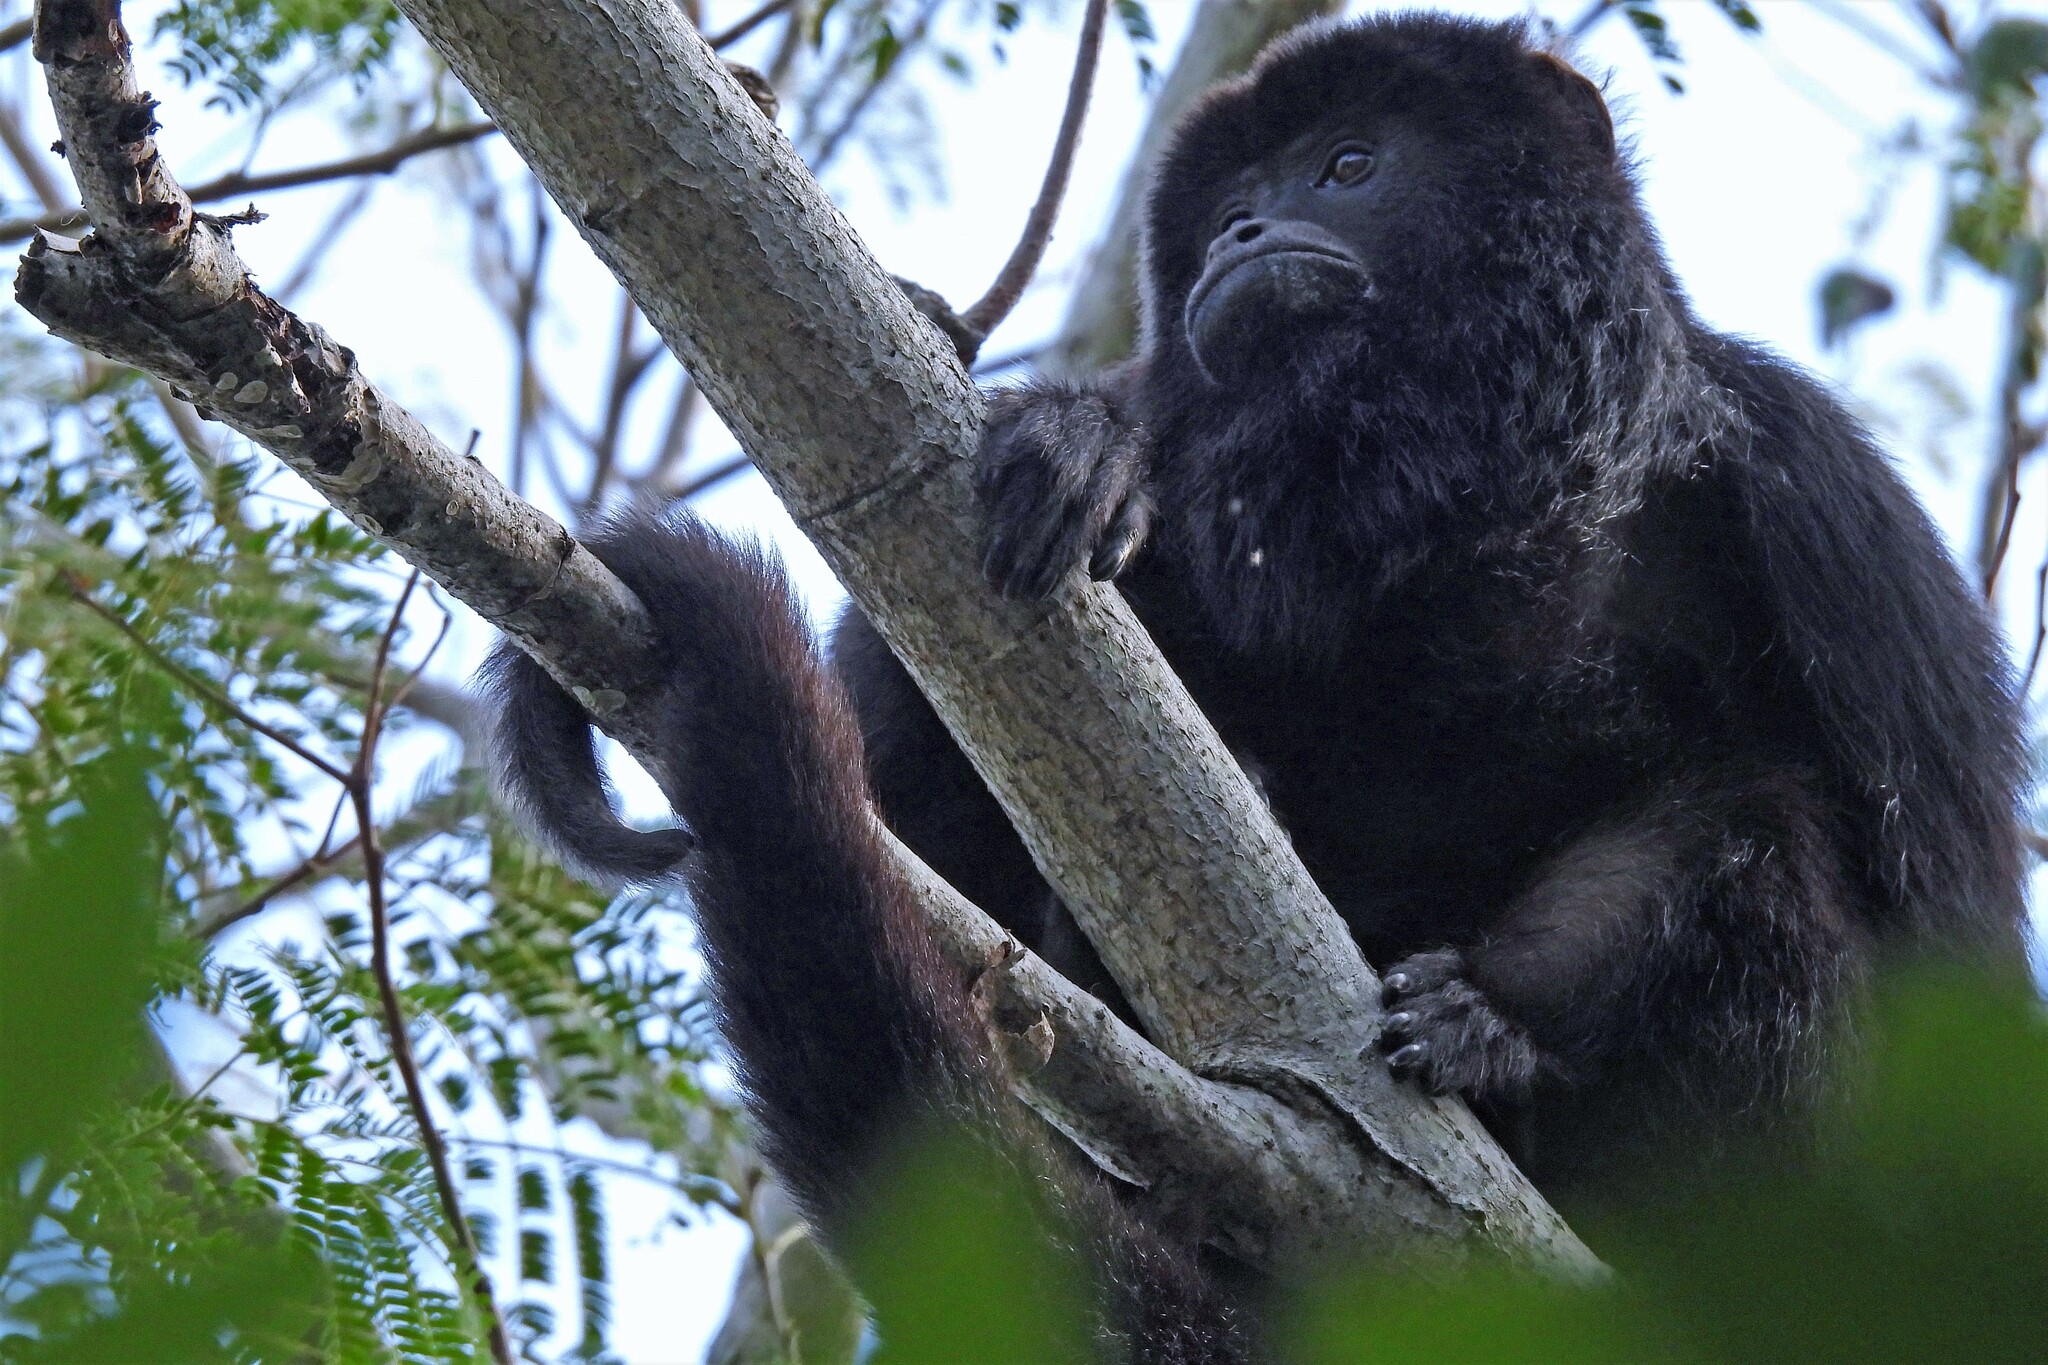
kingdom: Animalia
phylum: Chordata
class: Mammalia
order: Primates
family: Atelidae
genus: Alouatta
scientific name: Alouatta caraya
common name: Black howler
